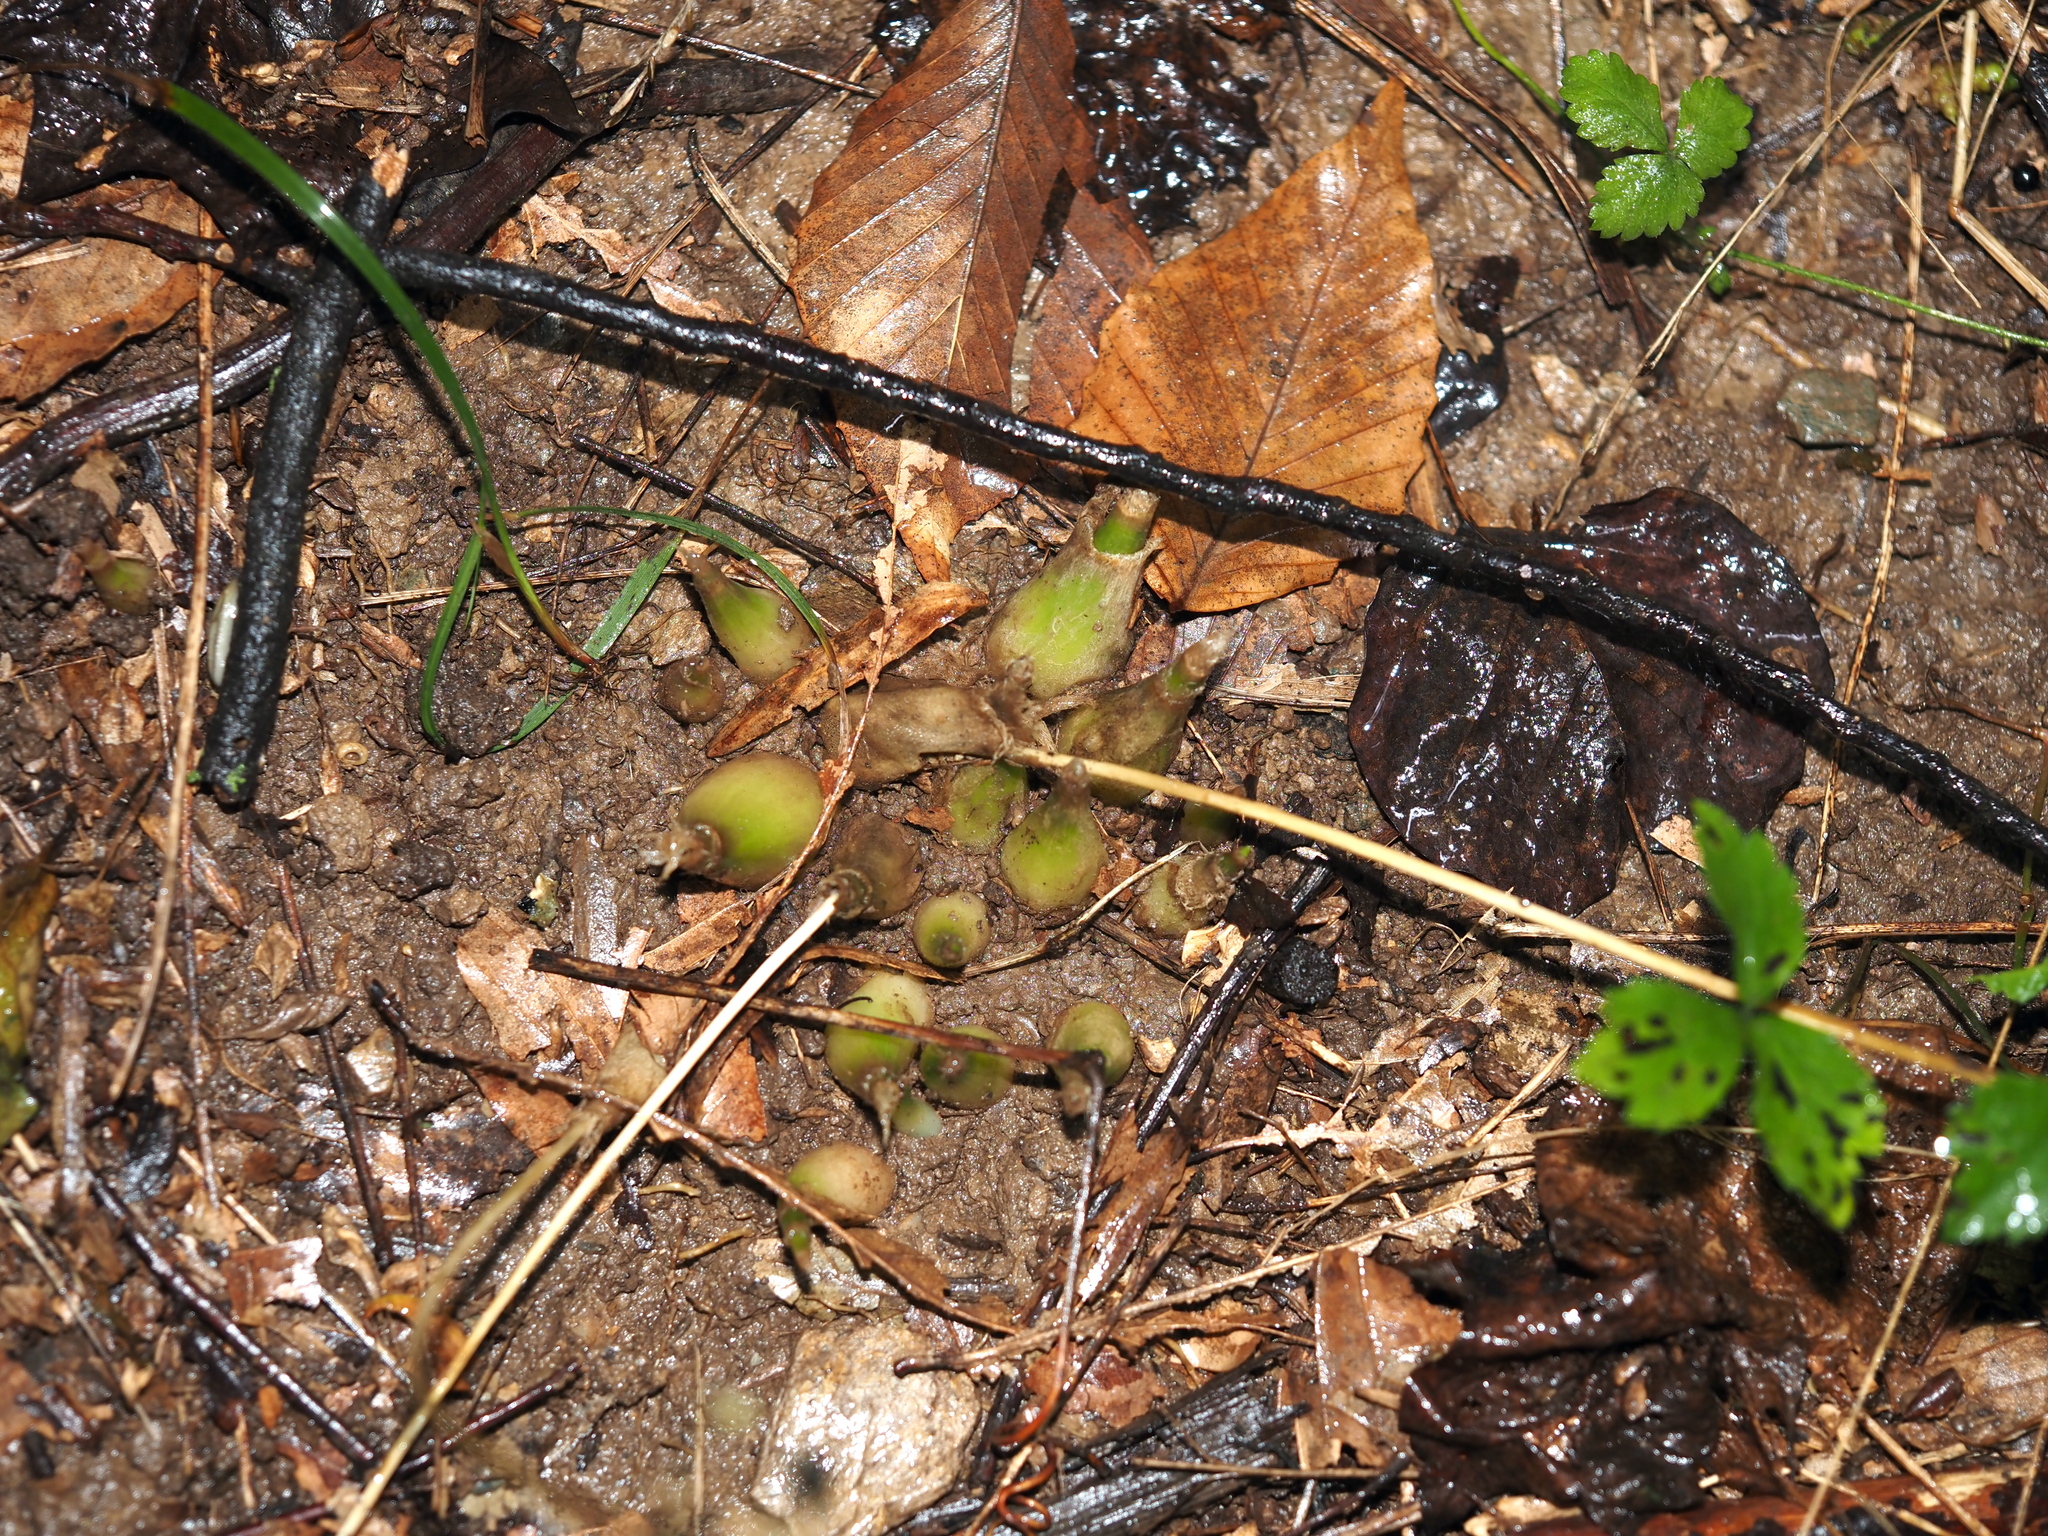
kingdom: Plantae
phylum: Tracheophyta
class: Liliopsida
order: Asparagales
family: Amaryllidaceae
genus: Allium
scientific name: Allium tricoccum
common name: Ramp
